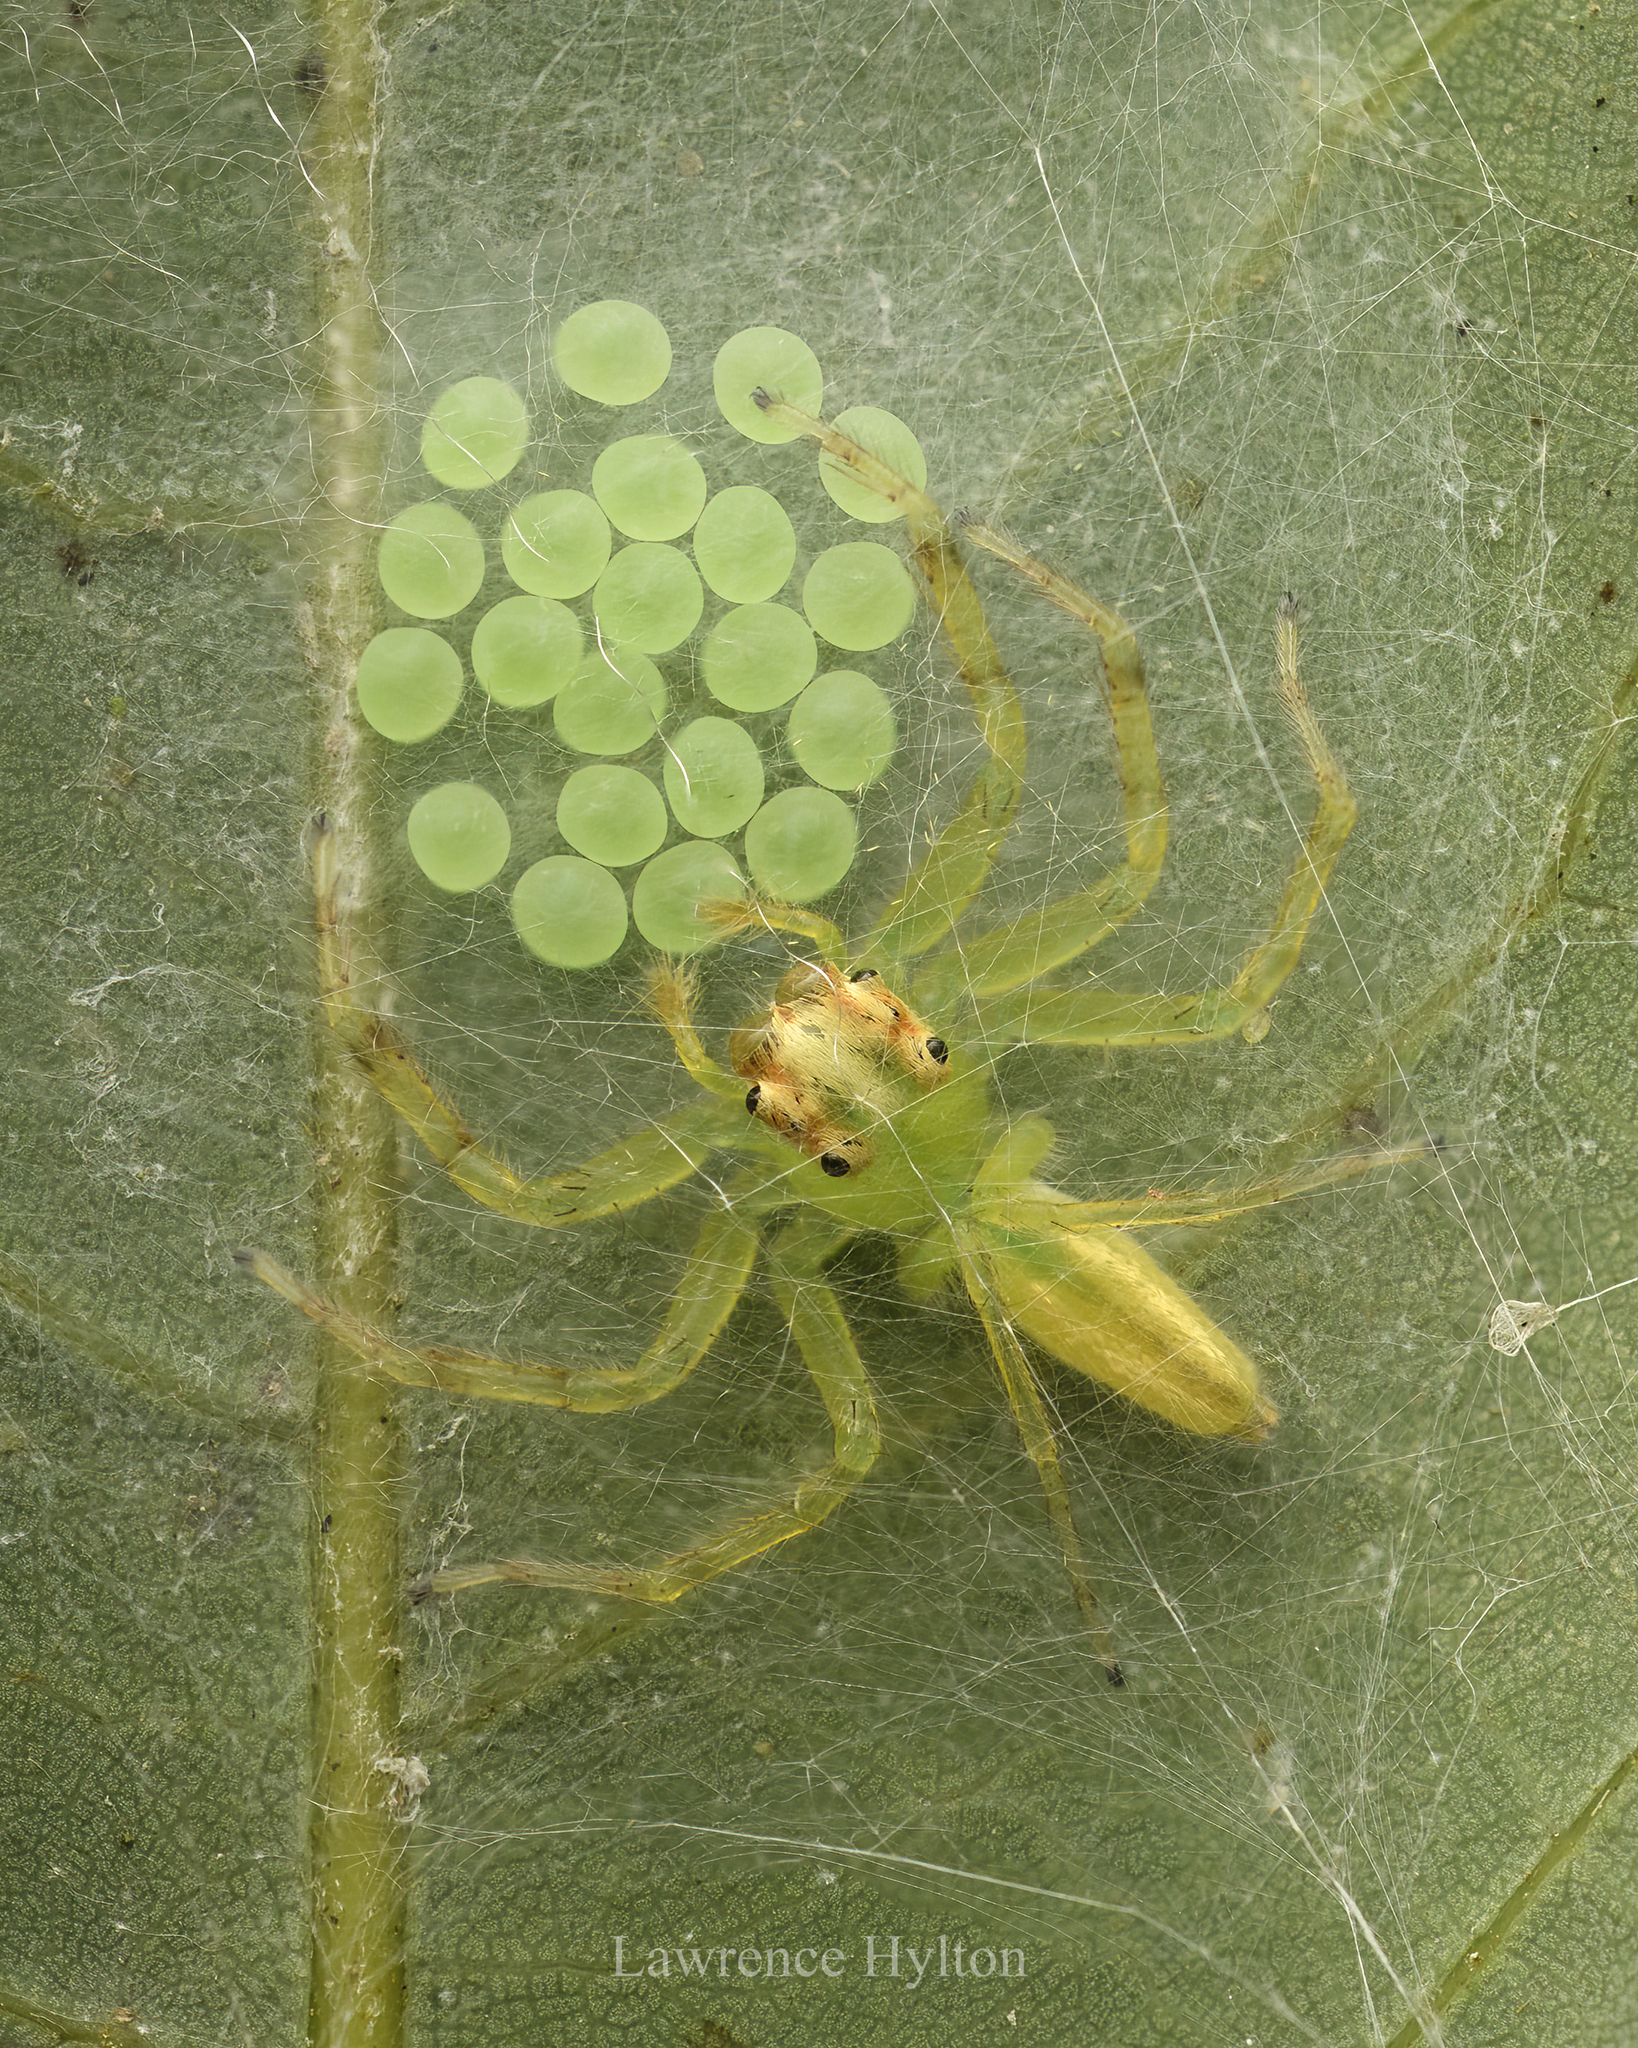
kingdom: Animalia
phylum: Arthropoda
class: Arachnida
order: Araneae
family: Salticidae
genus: Epeus
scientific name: Epeus glorius
